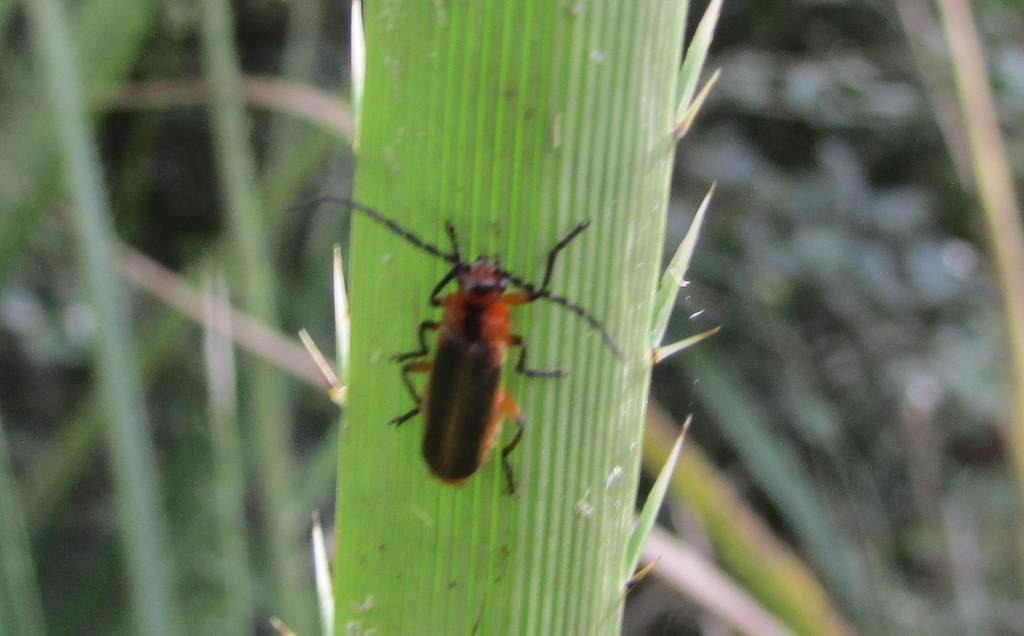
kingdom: Animalia
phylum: Arthropoda
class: Insecta
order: Coleoptera
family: Cantharidae
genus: Discodon
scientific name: Discodon
